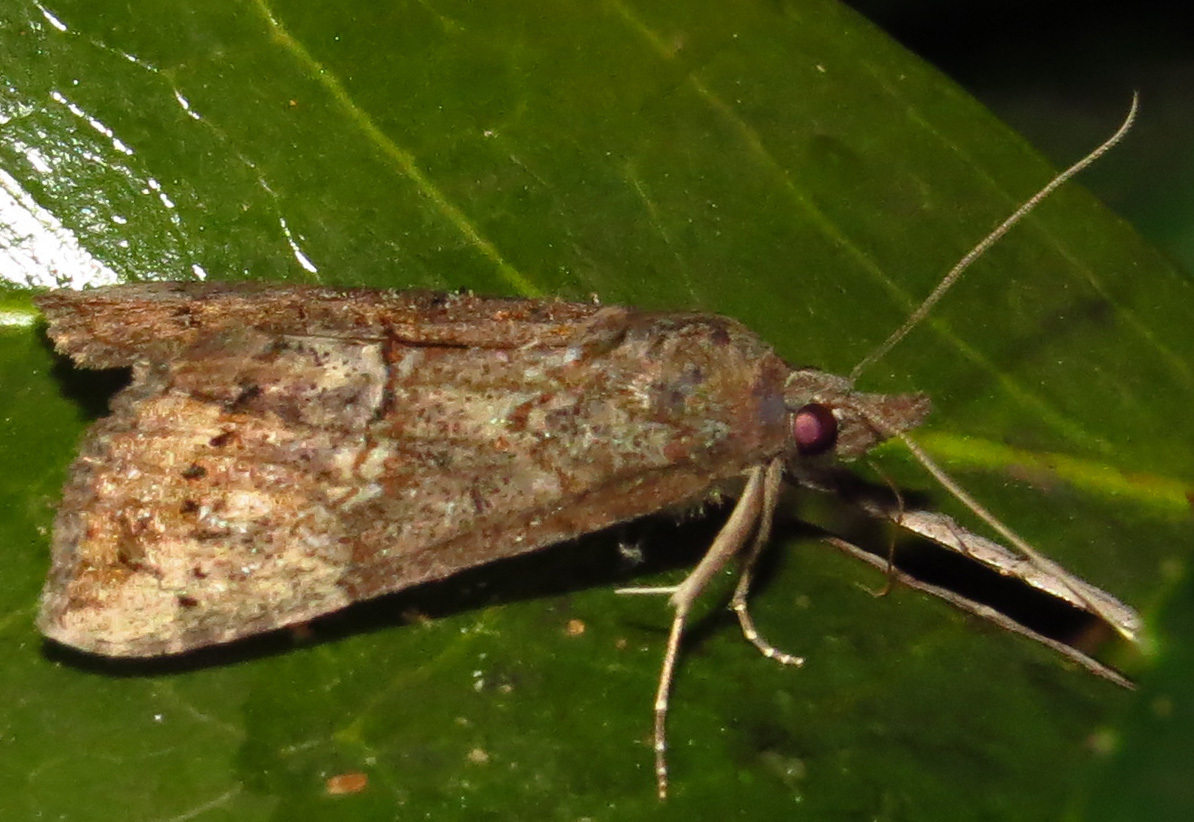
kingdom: Animalia
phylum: Arthropoda
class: Insecta
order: Lepidoptera
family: Erebidae
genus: Hypena
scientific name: Hypena scabra
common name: Green cloverworm
